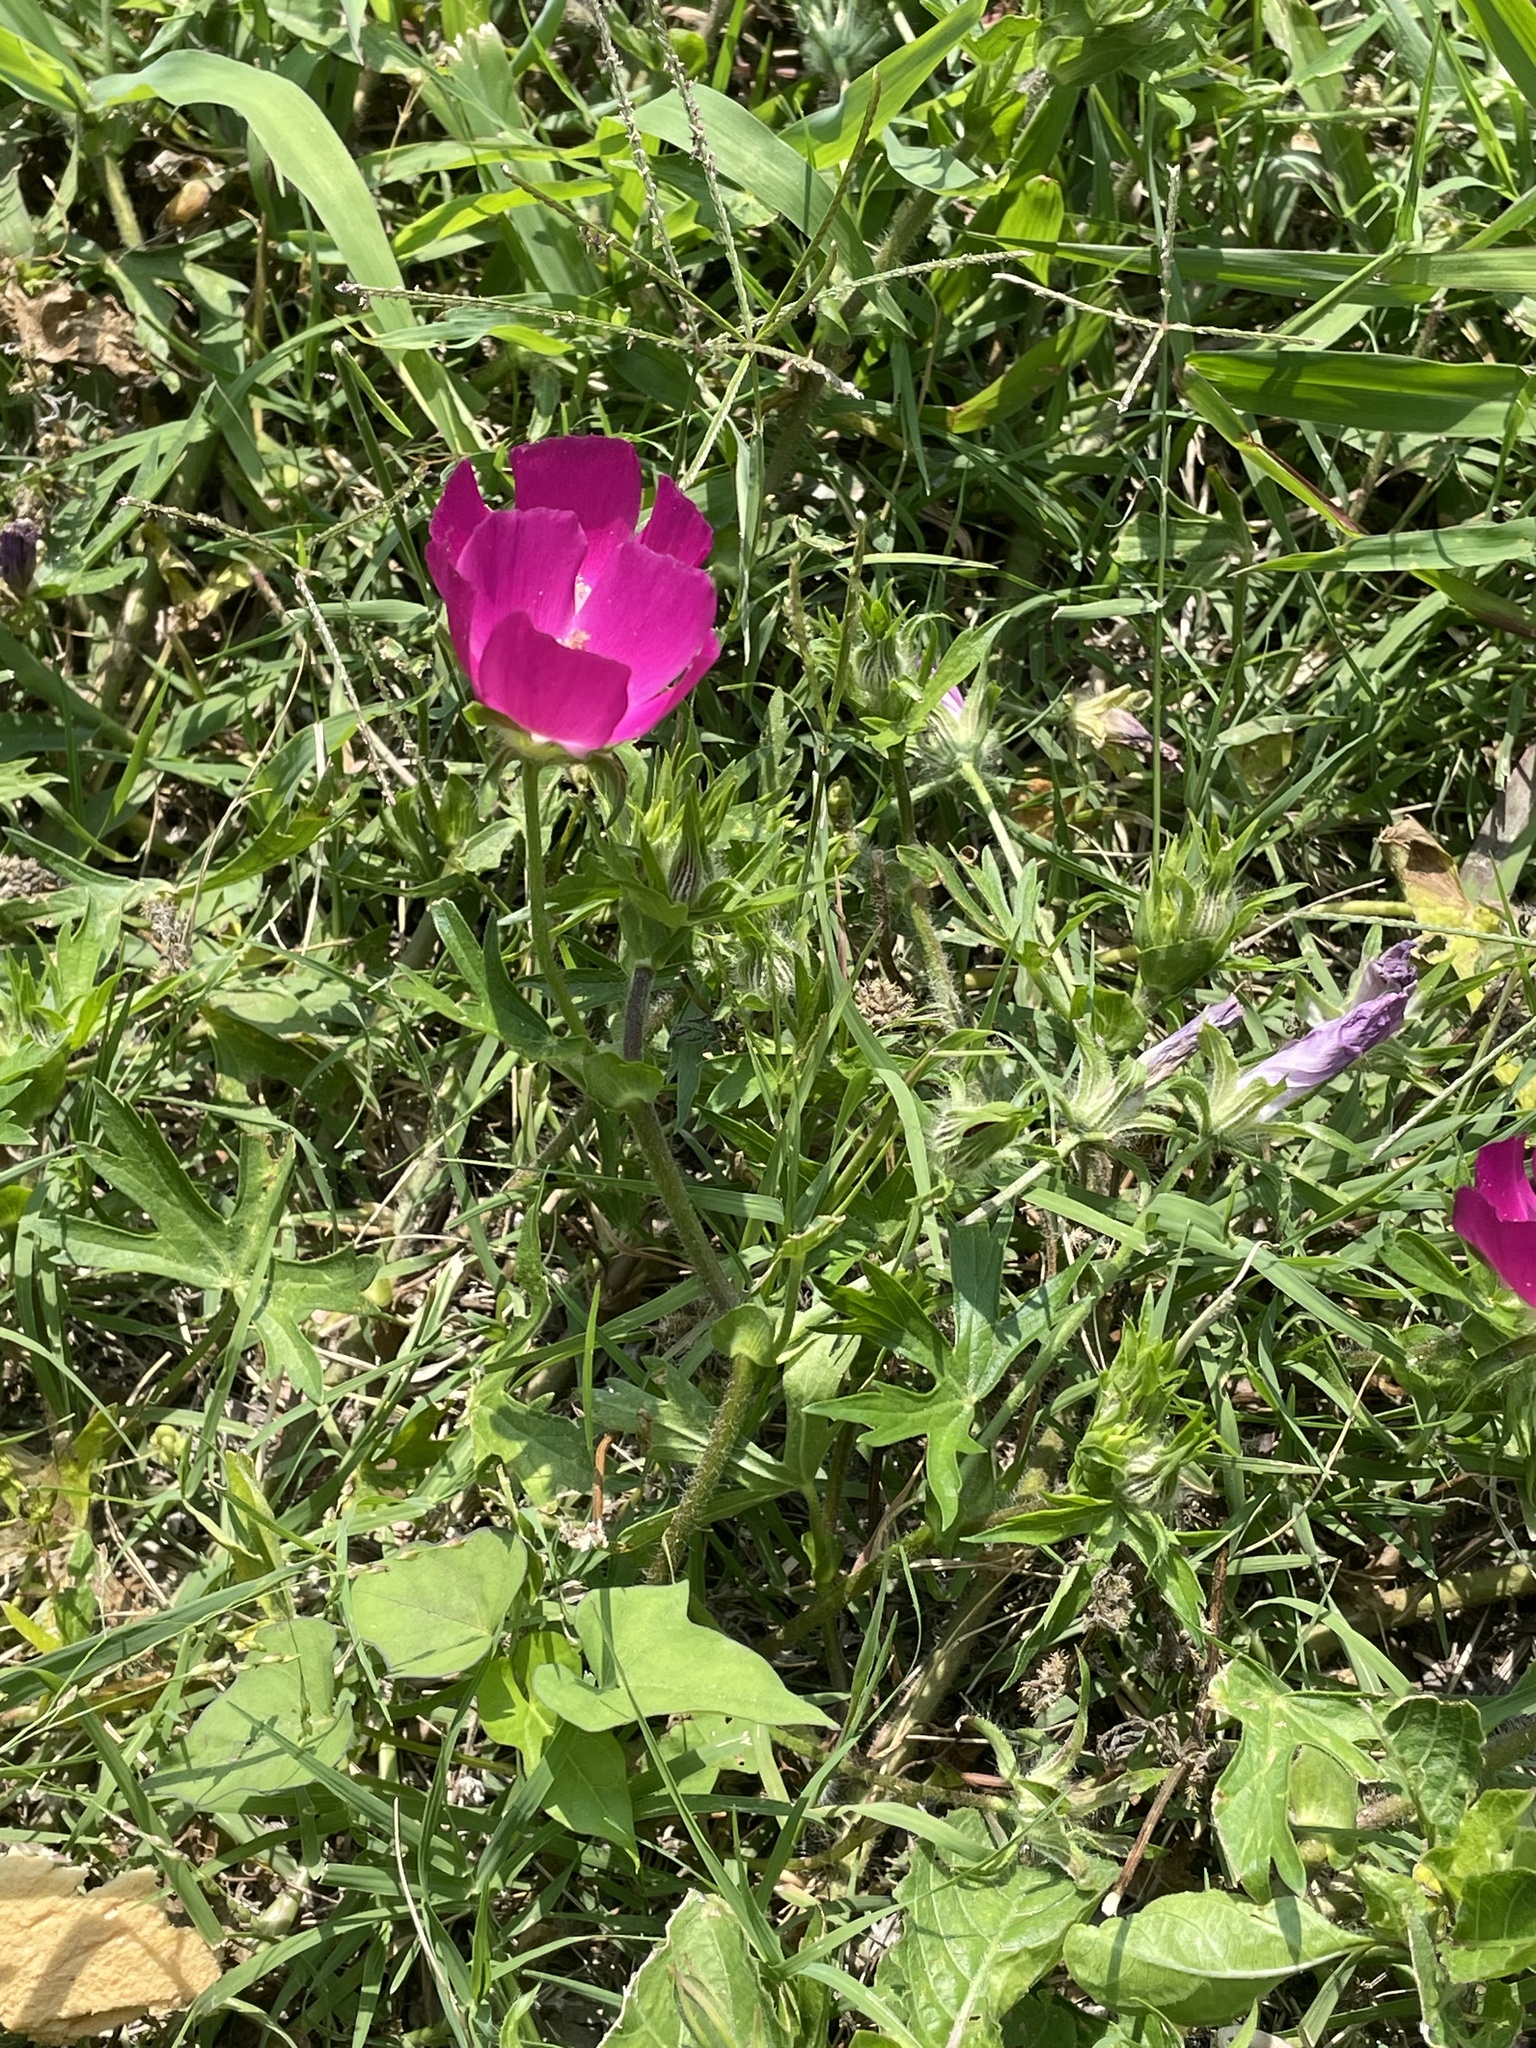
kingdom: Plantae
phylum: Tracheophyta
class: Magnoliopsida
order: Malvales
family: Malvaceae
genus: Callirhoe
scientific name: Callirhoe involucrata
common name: Purple poppy-mallow
